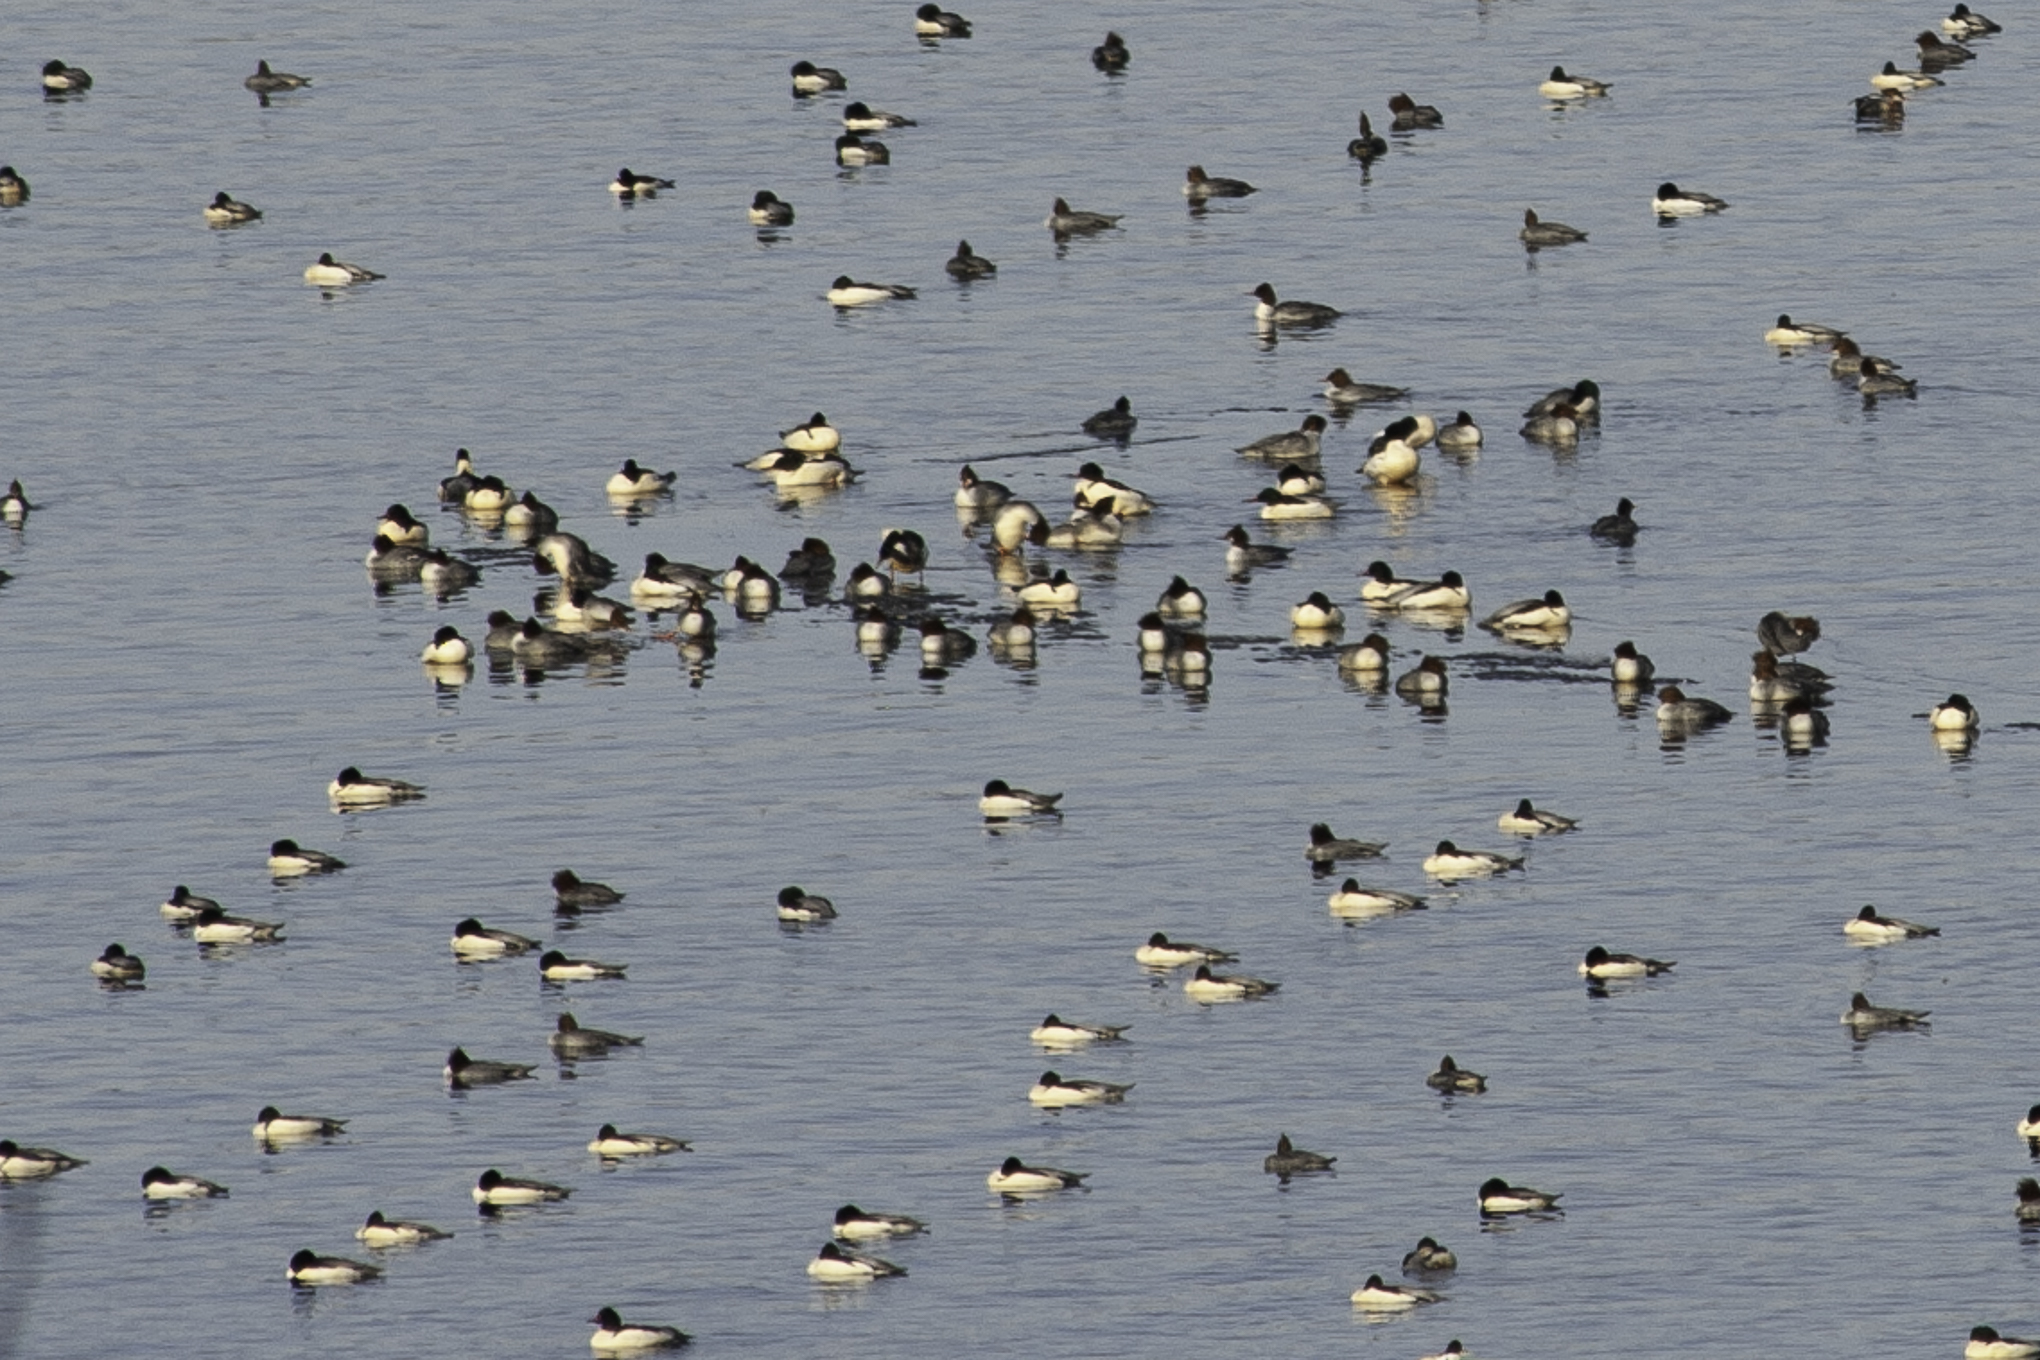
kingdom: Animalia
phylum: Chordata
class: Aves
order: Anseriformes
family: Anatidae
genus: Mergus
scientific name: Mergus merganser
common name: Common merganser
